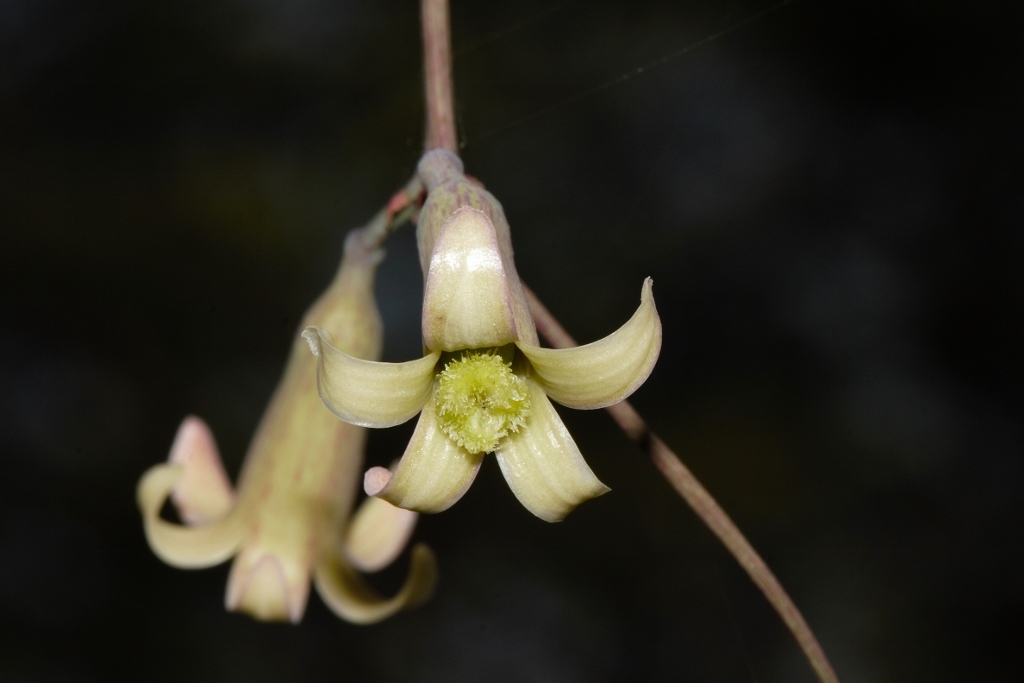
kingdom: Plantae
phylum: Tracheophyta
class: Magnoliopsida
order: Malpighiales
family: Passifloraceae
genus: Adenia
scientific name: Adenia digitata
